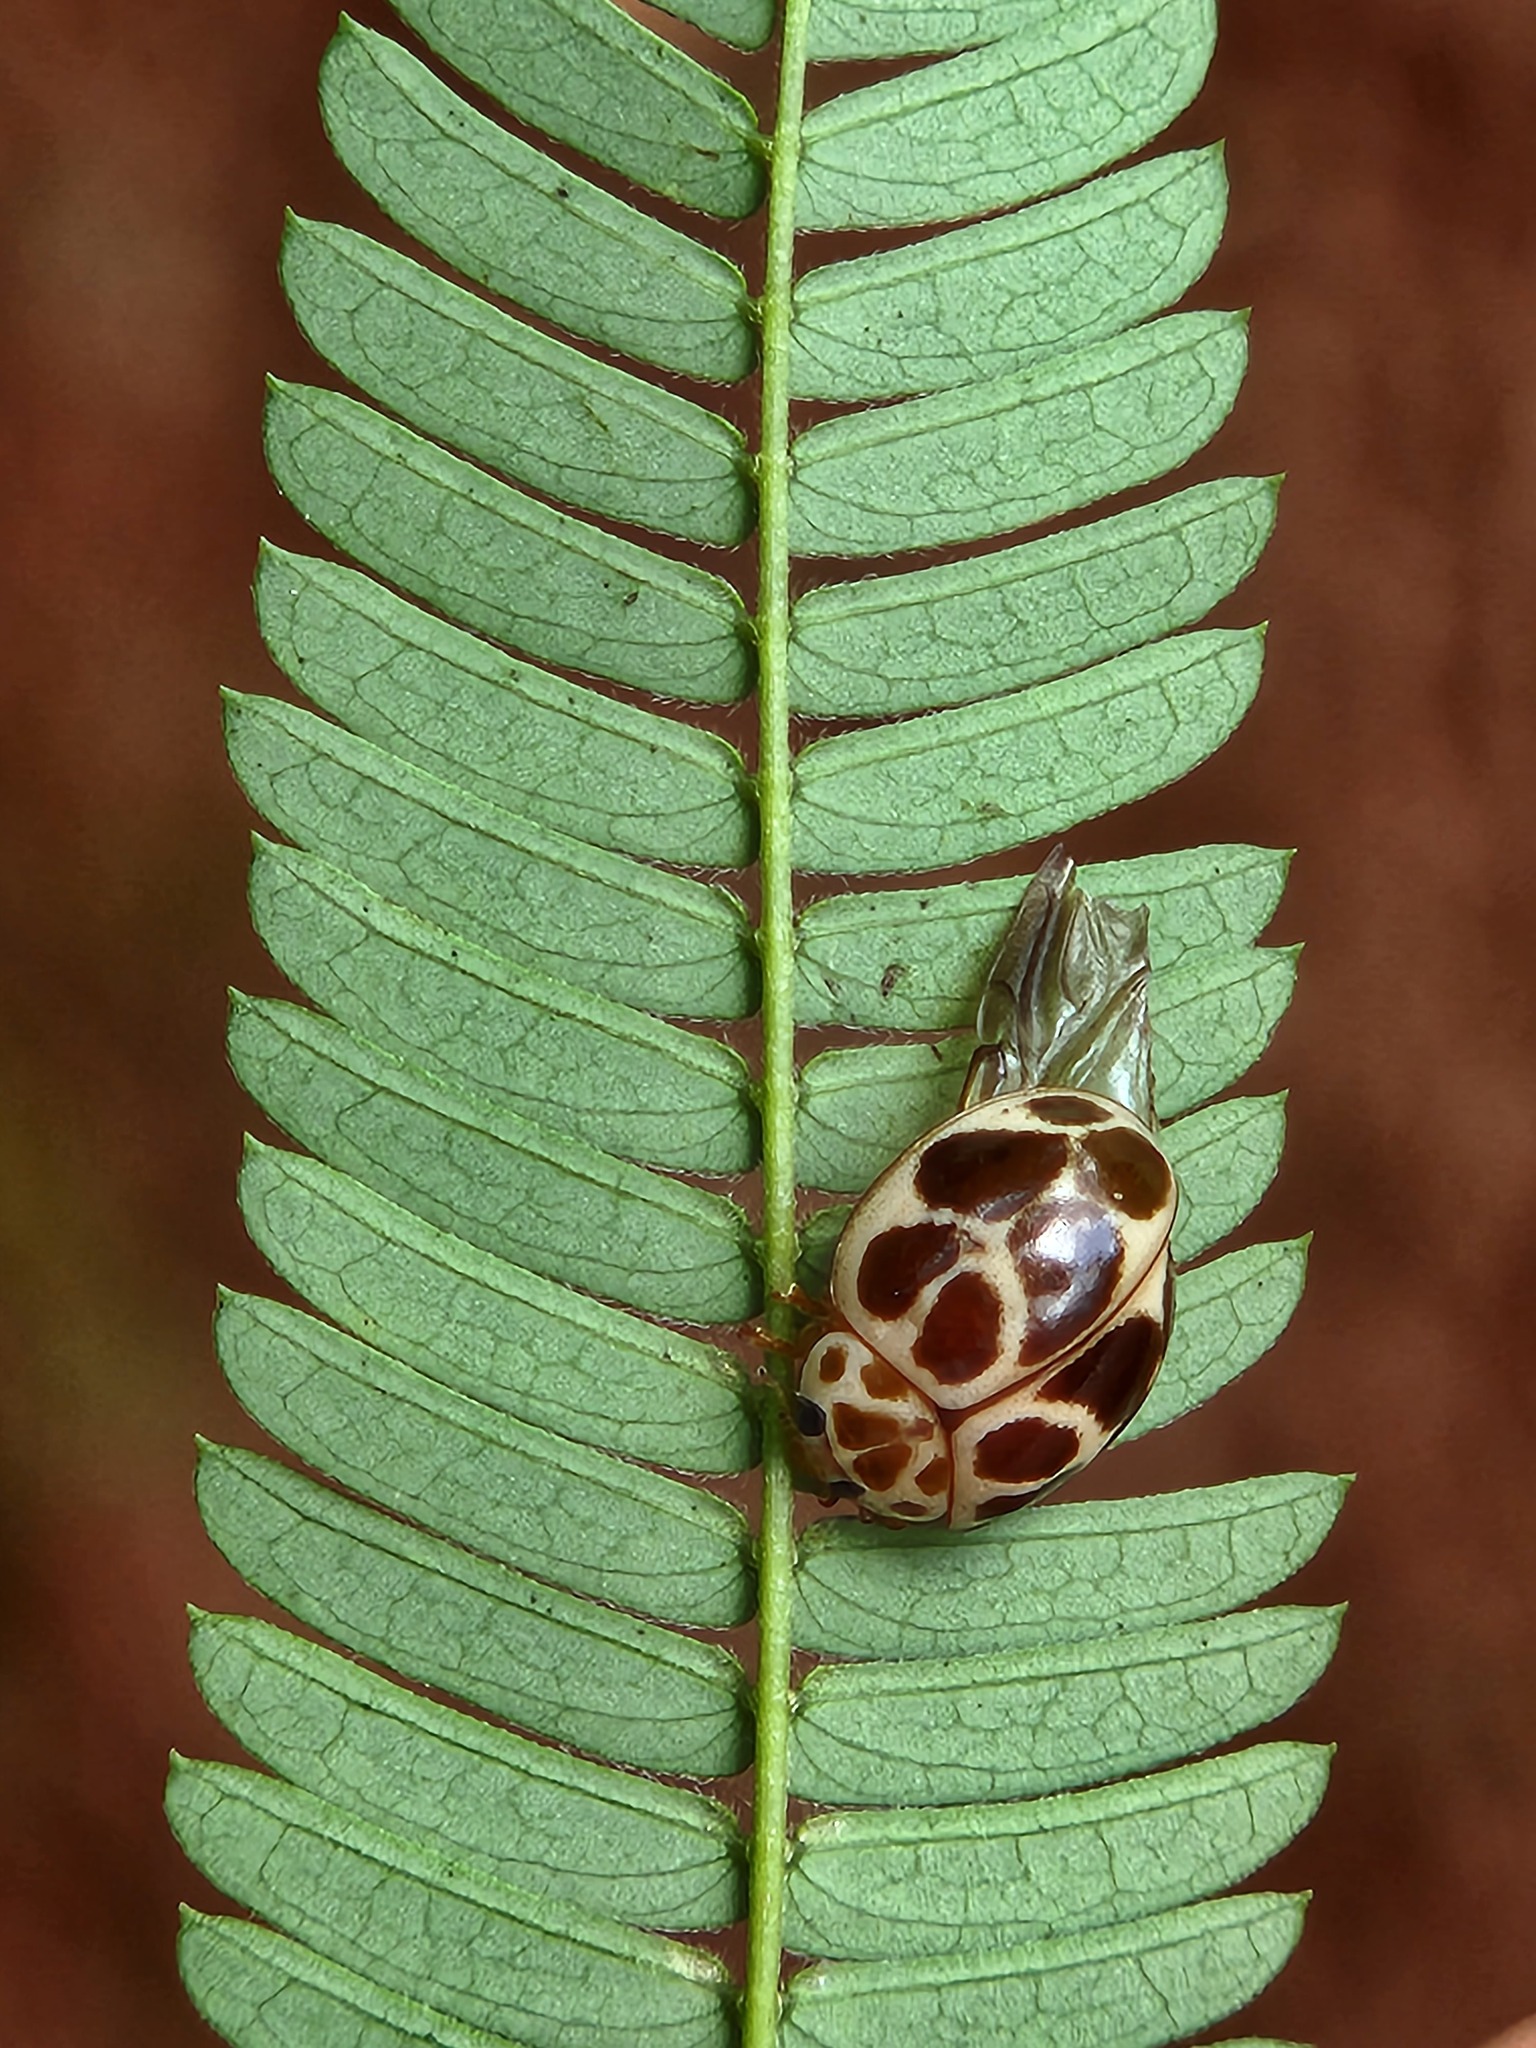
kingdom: Animalia
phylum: Arthropoda
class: Insecta
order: Coleoptera
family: Coccinellidae
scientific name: Coccinellidae
